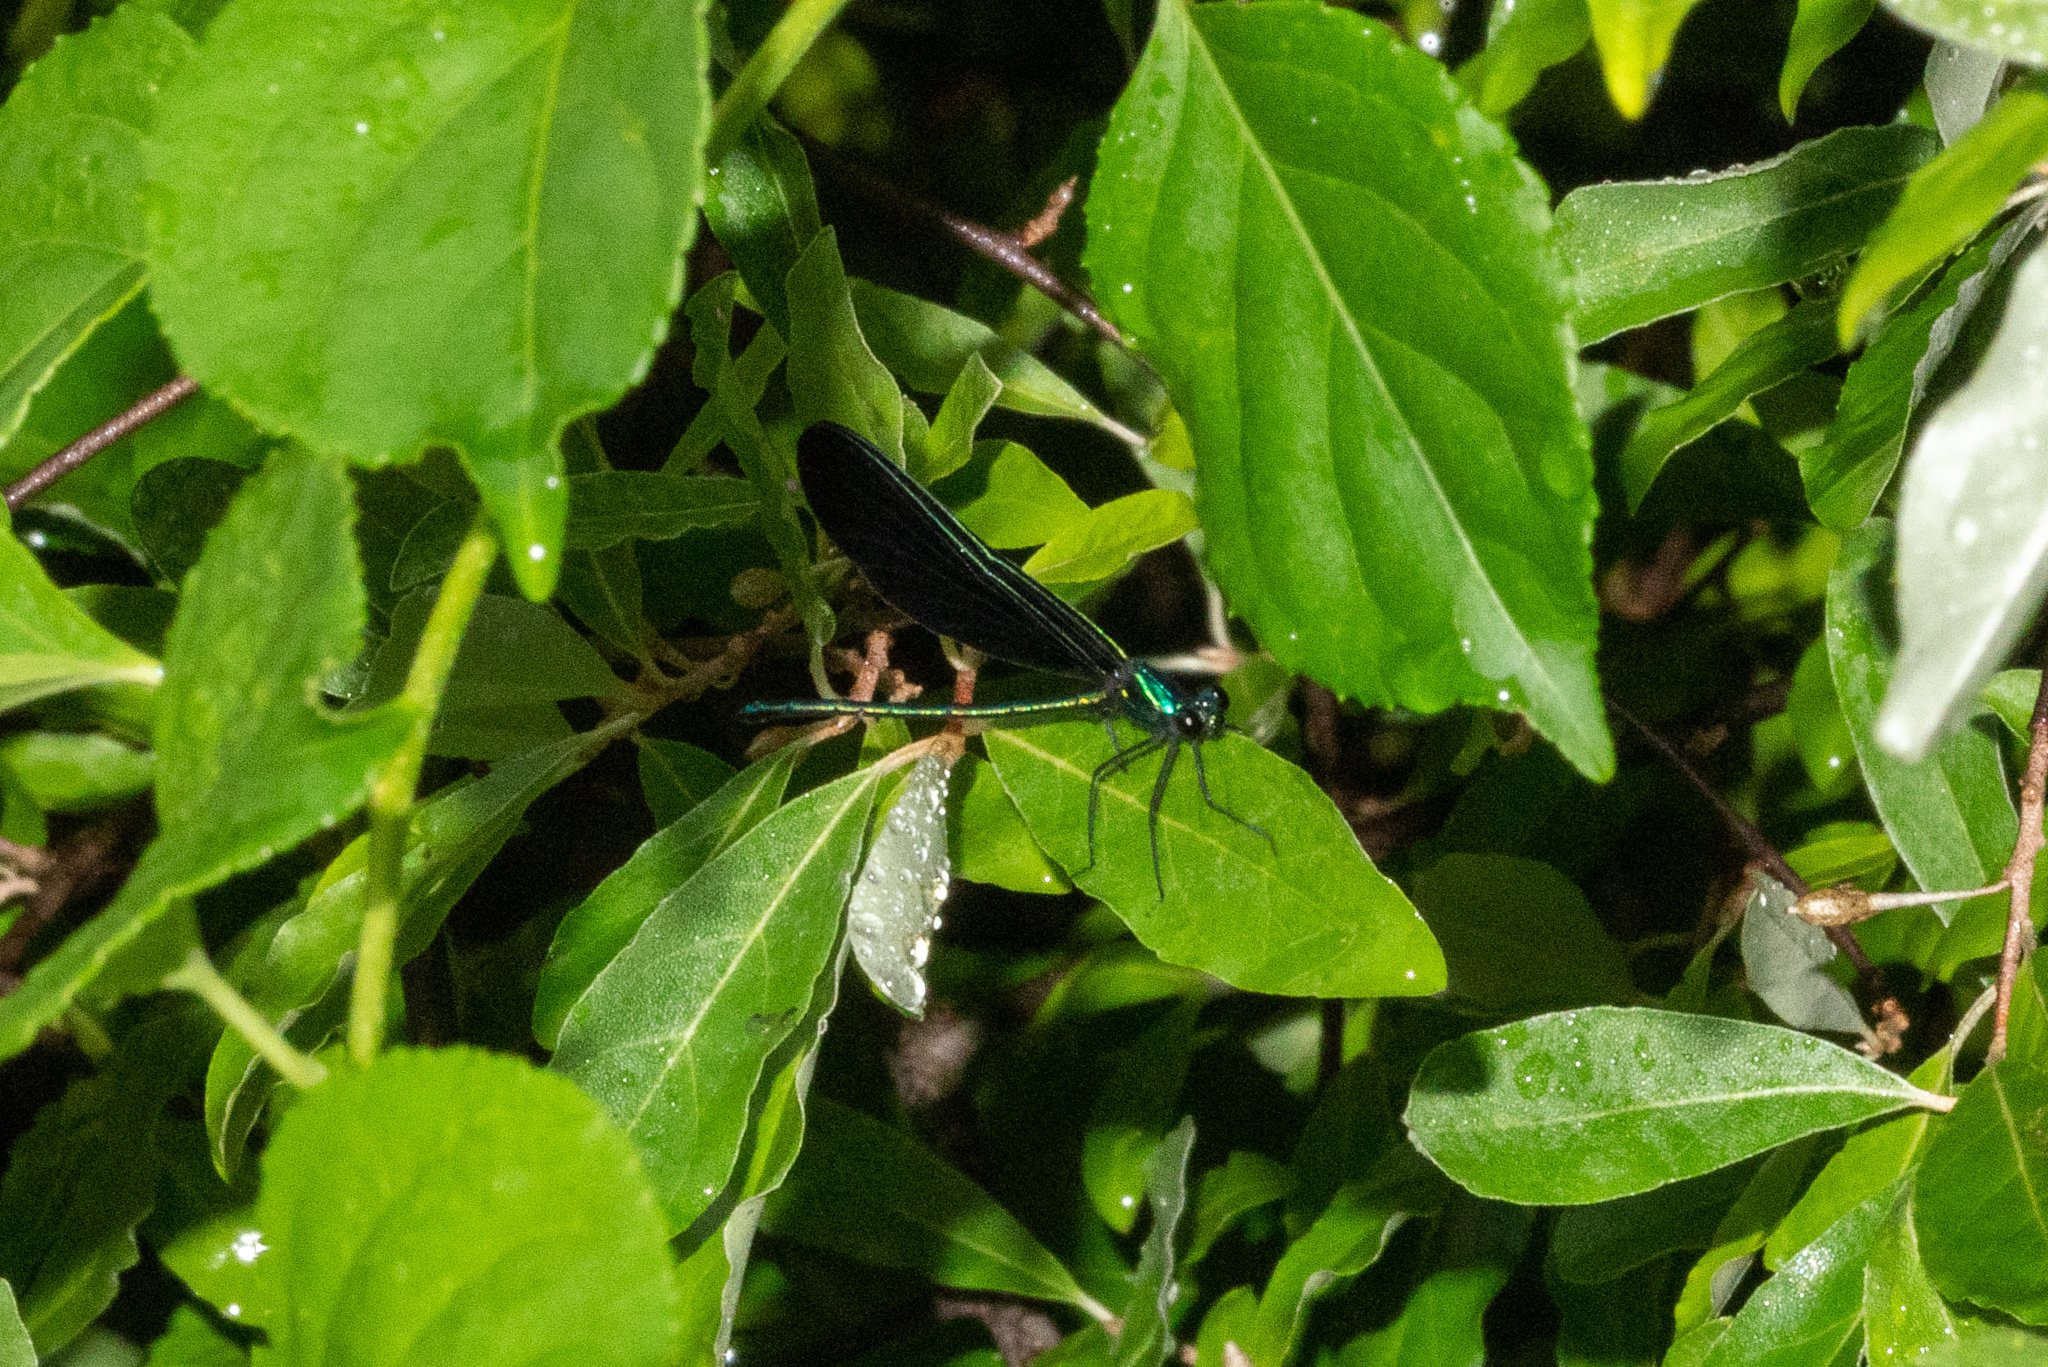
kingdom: Animalia
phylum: Arthropoda
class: Insecta
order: Odonata
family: Calopterygidae
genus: Calopteryx
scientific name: Calopteryx maculata
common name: Ebony jewelwing
